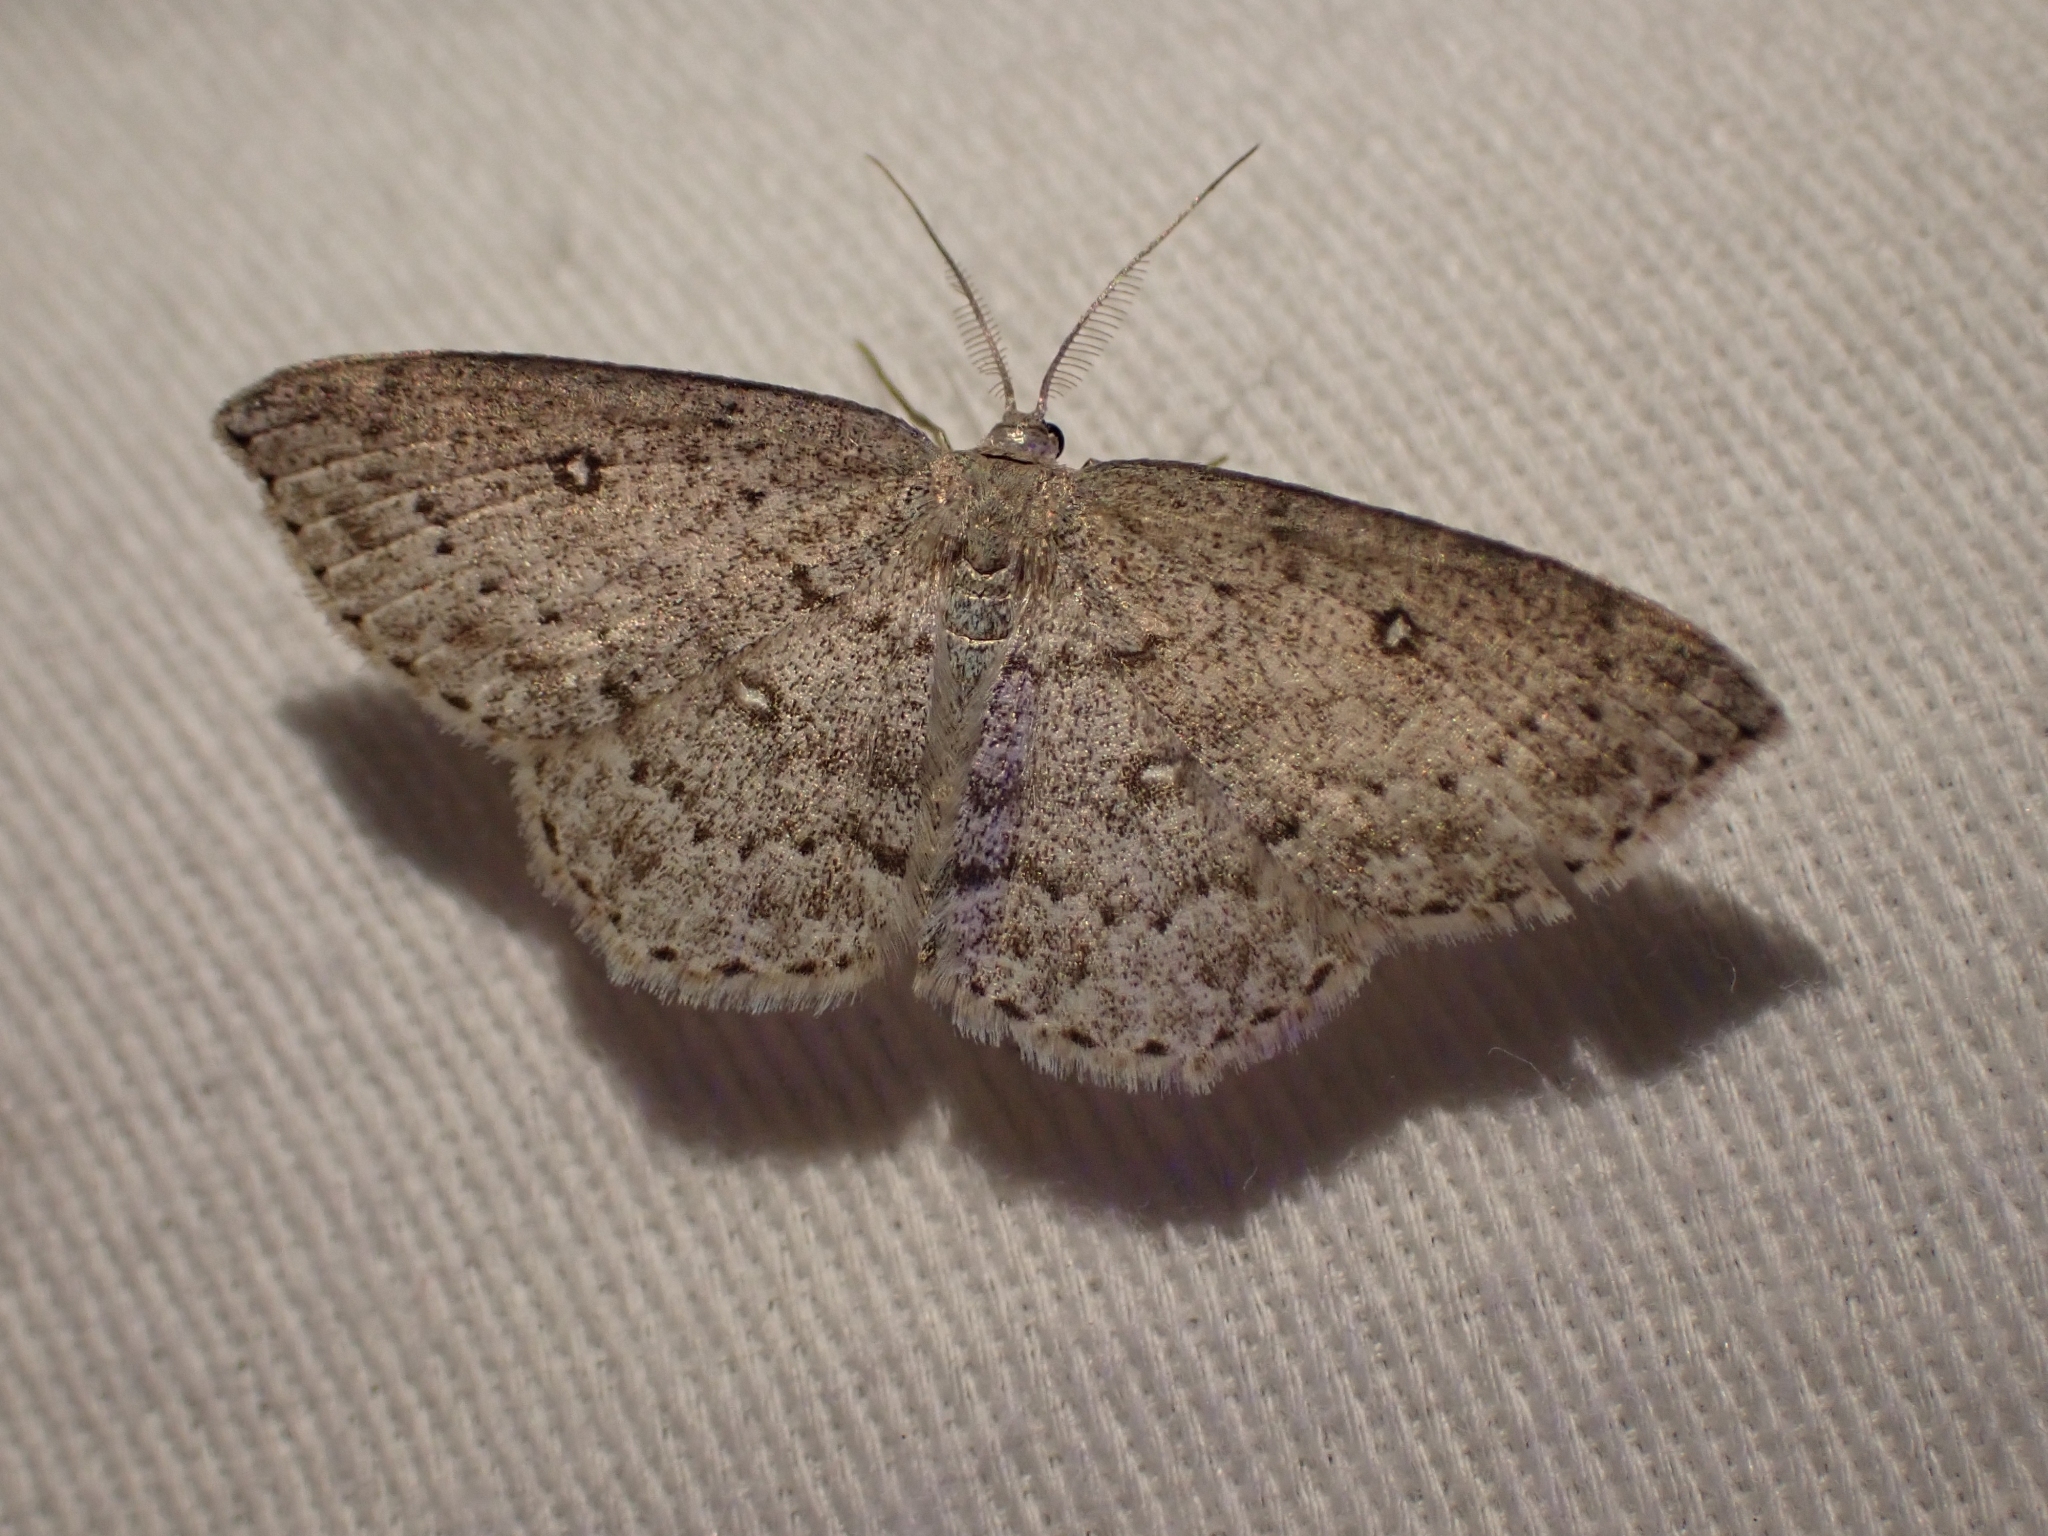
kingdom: Animalia
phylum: Arthropoda
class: Insecta
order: Lepidoptera
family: Geometridae
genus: Cyclophora
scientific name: Cyclophora pendulinaria
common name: Sweet fern geometer
